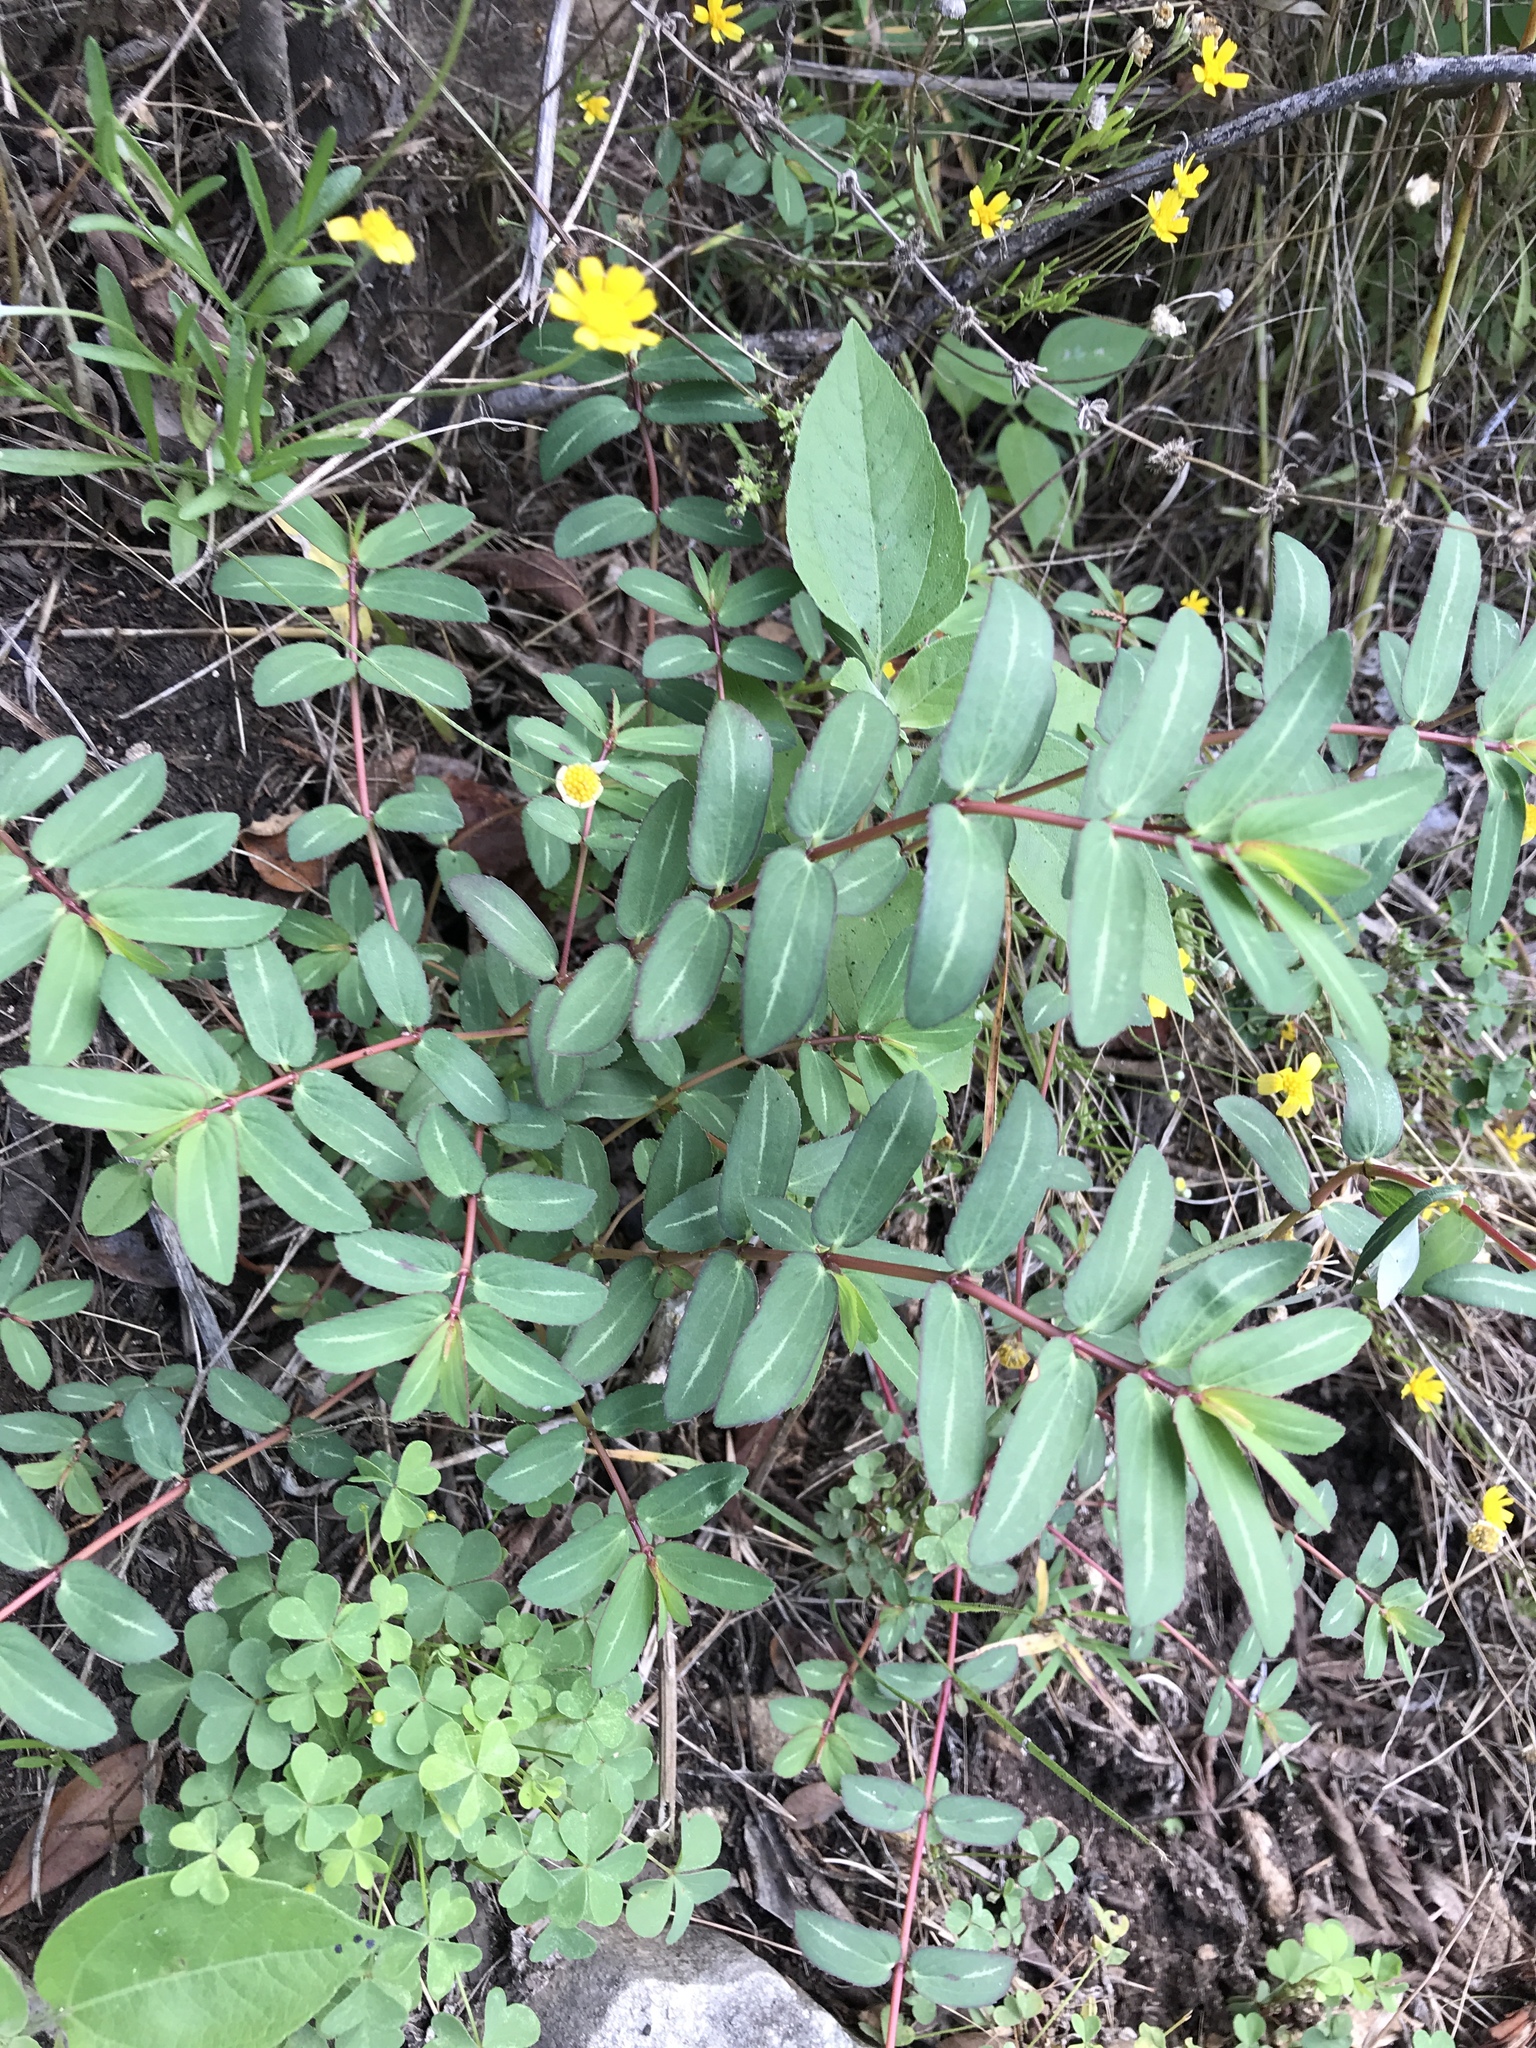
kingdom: Plantae
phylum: Tracheophyta
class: Magnoliopsida
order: Malpighiales
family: Euphorbiaceae
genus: Euphorbia
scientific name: Euphorbia nutans
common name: Eyebane
